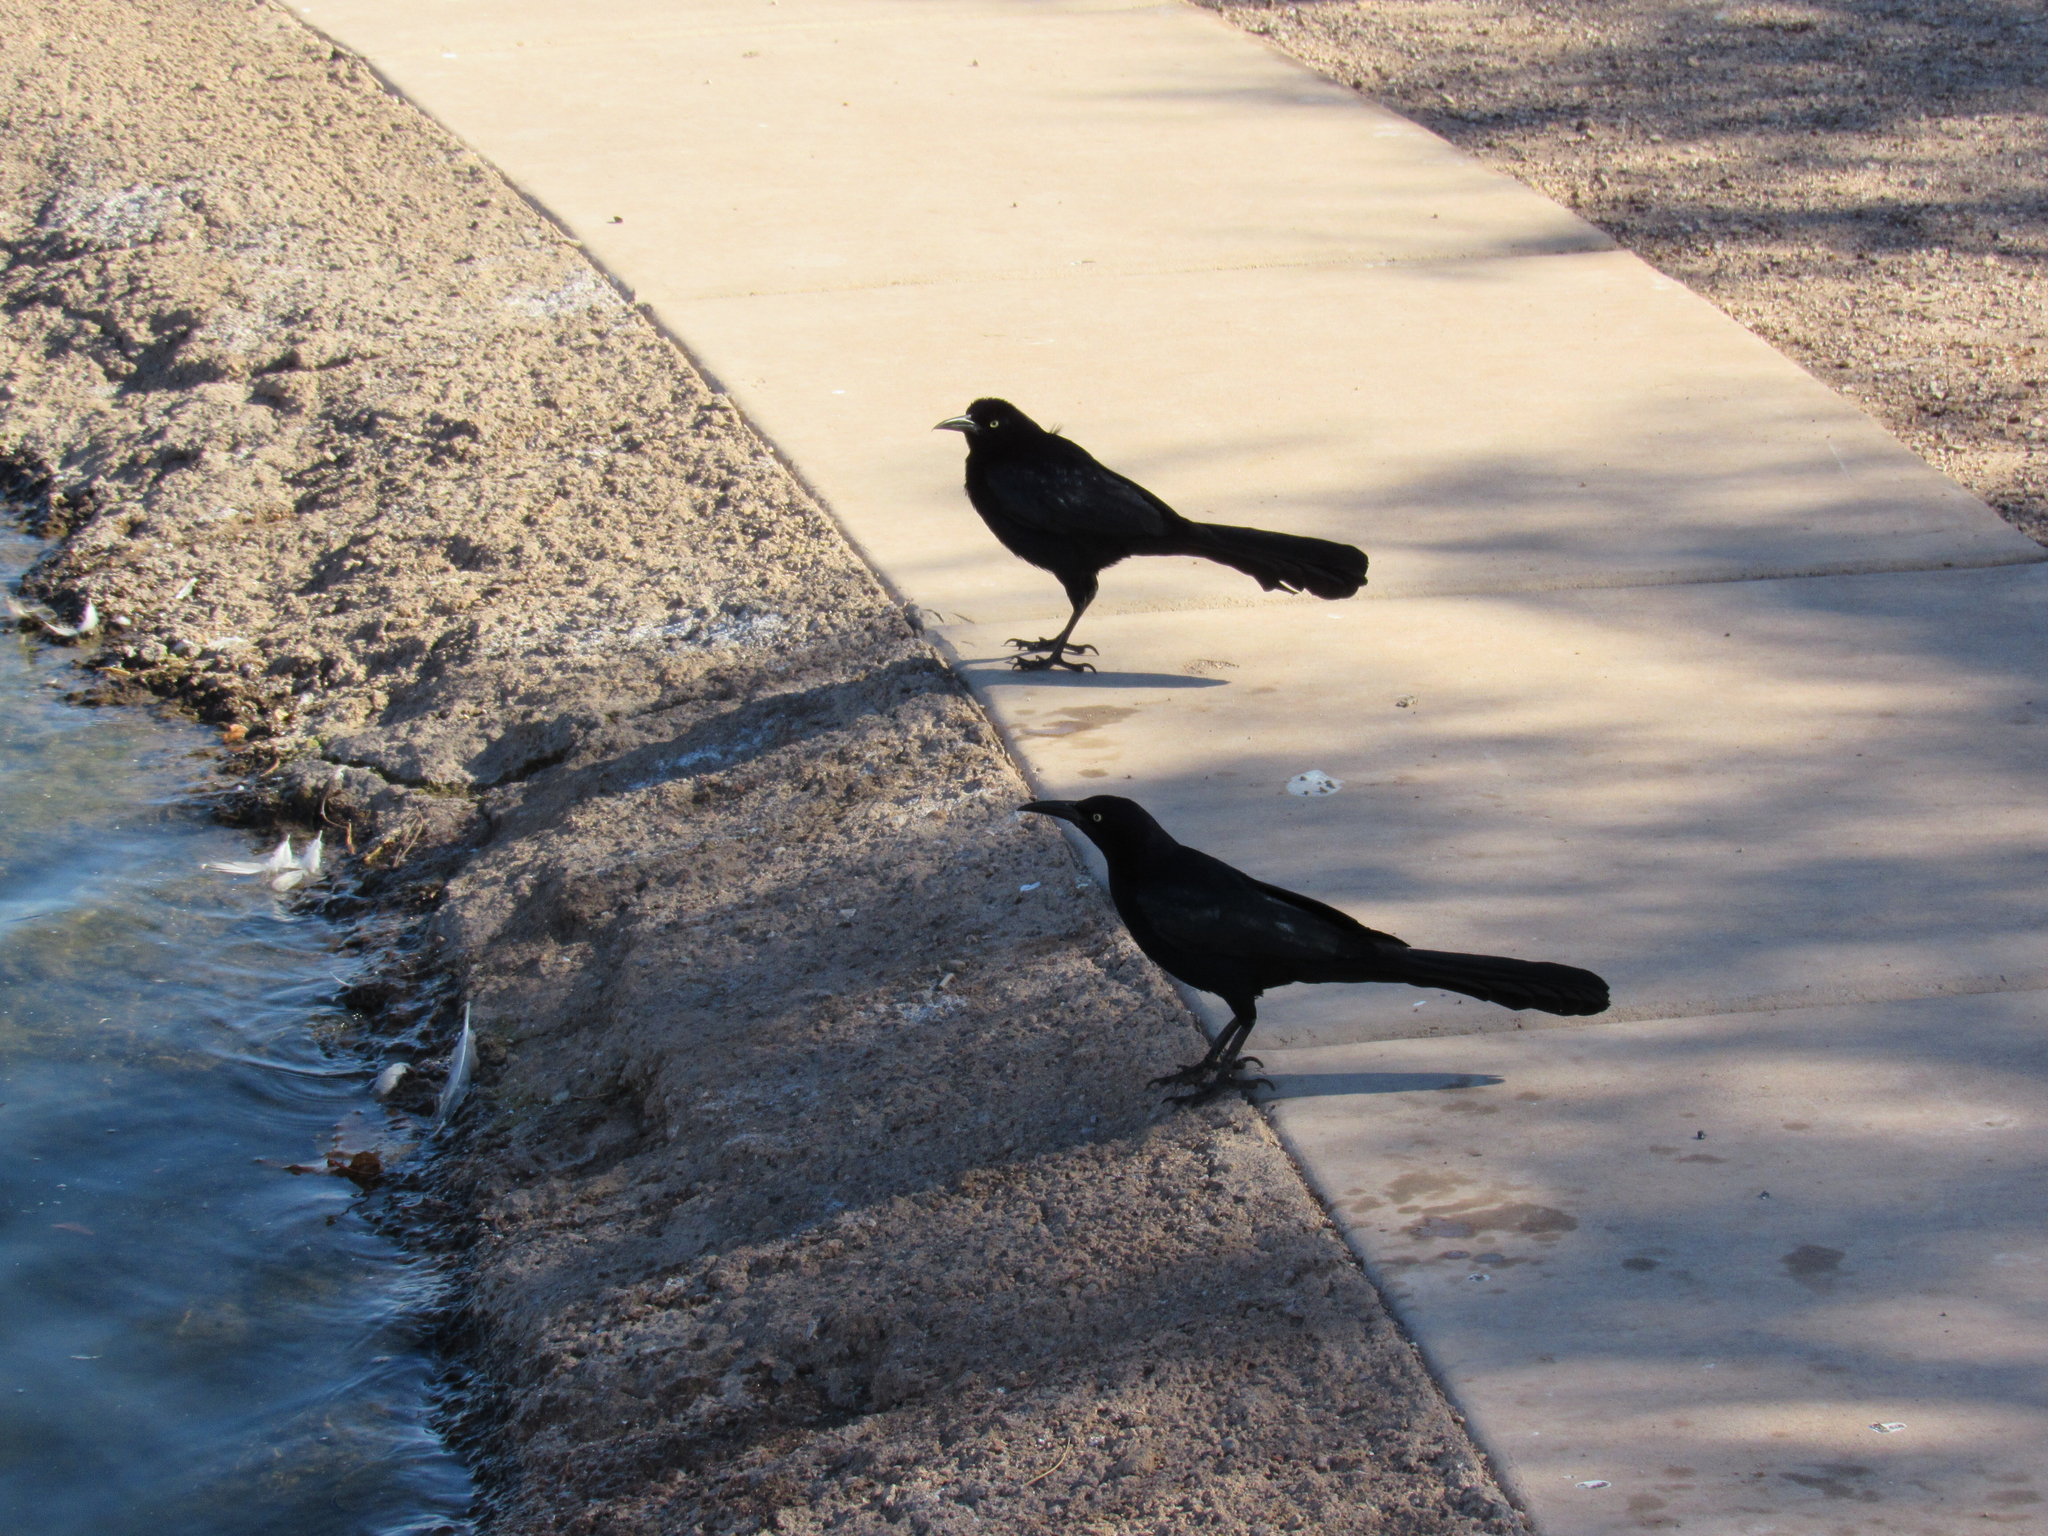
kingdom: Animalia
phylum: Chordata
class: Aves
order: Passeriformes
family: Icteridae
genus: Quiscalus
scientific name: Quiscalus mexicanus
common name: Great-tailed grackle
